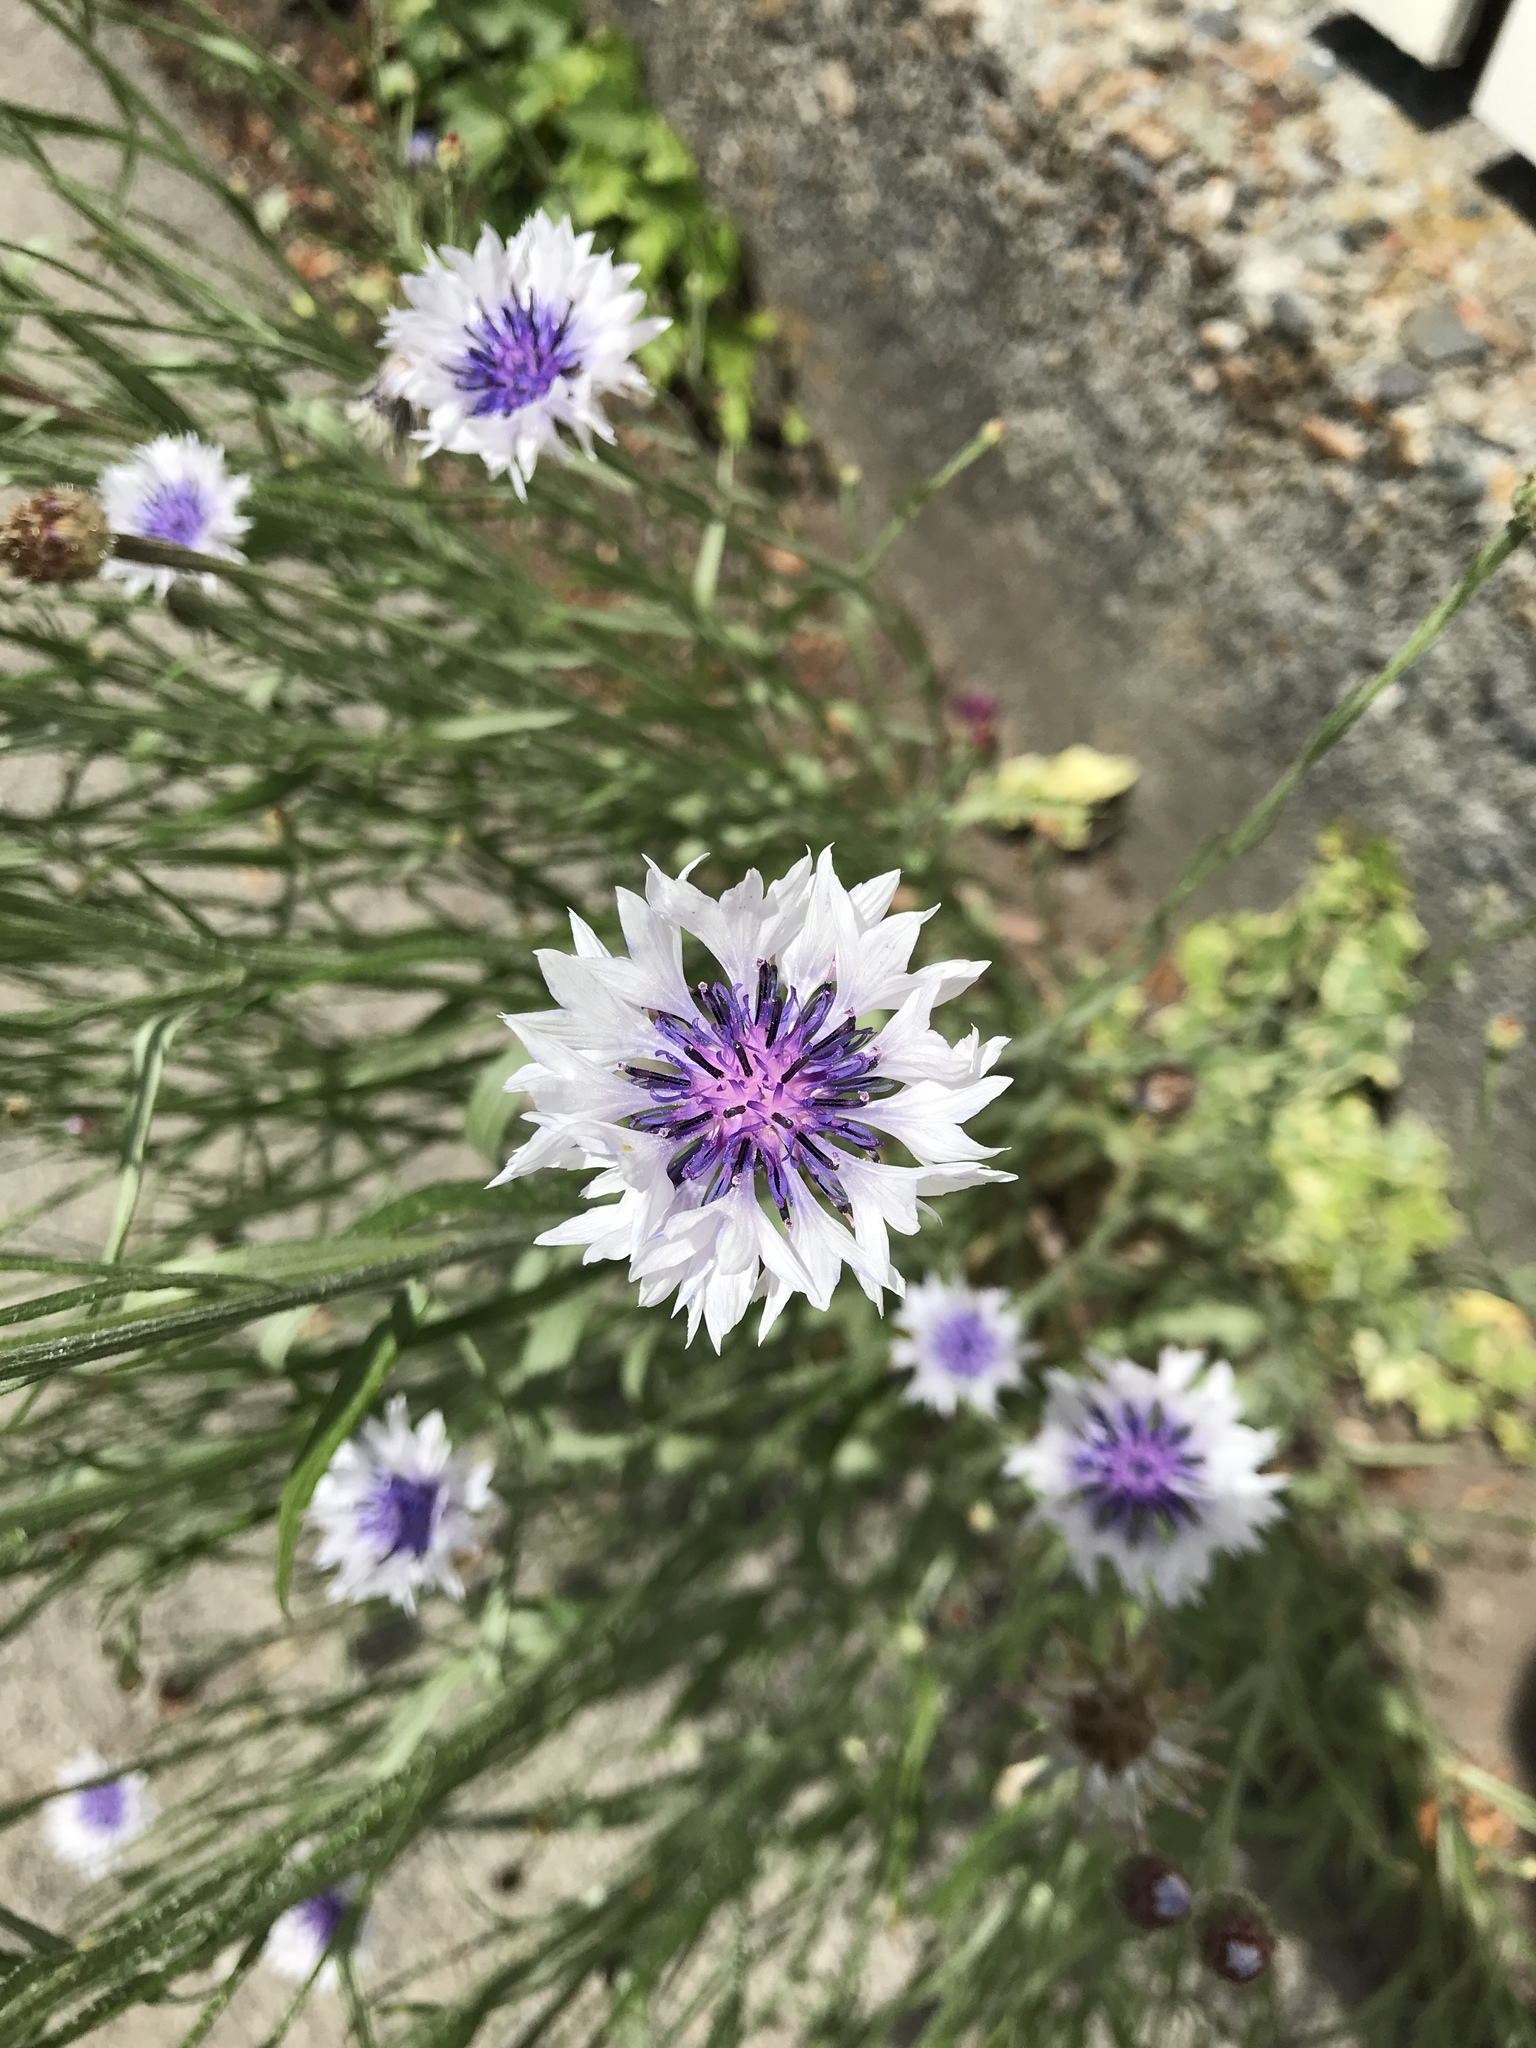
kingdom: Plantae
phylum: Tracheophyta
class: Magnoliopsida
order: Asterales
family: Asteraceae
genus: Centaurea
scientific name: Centaurea cyanus
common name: Cornflower
